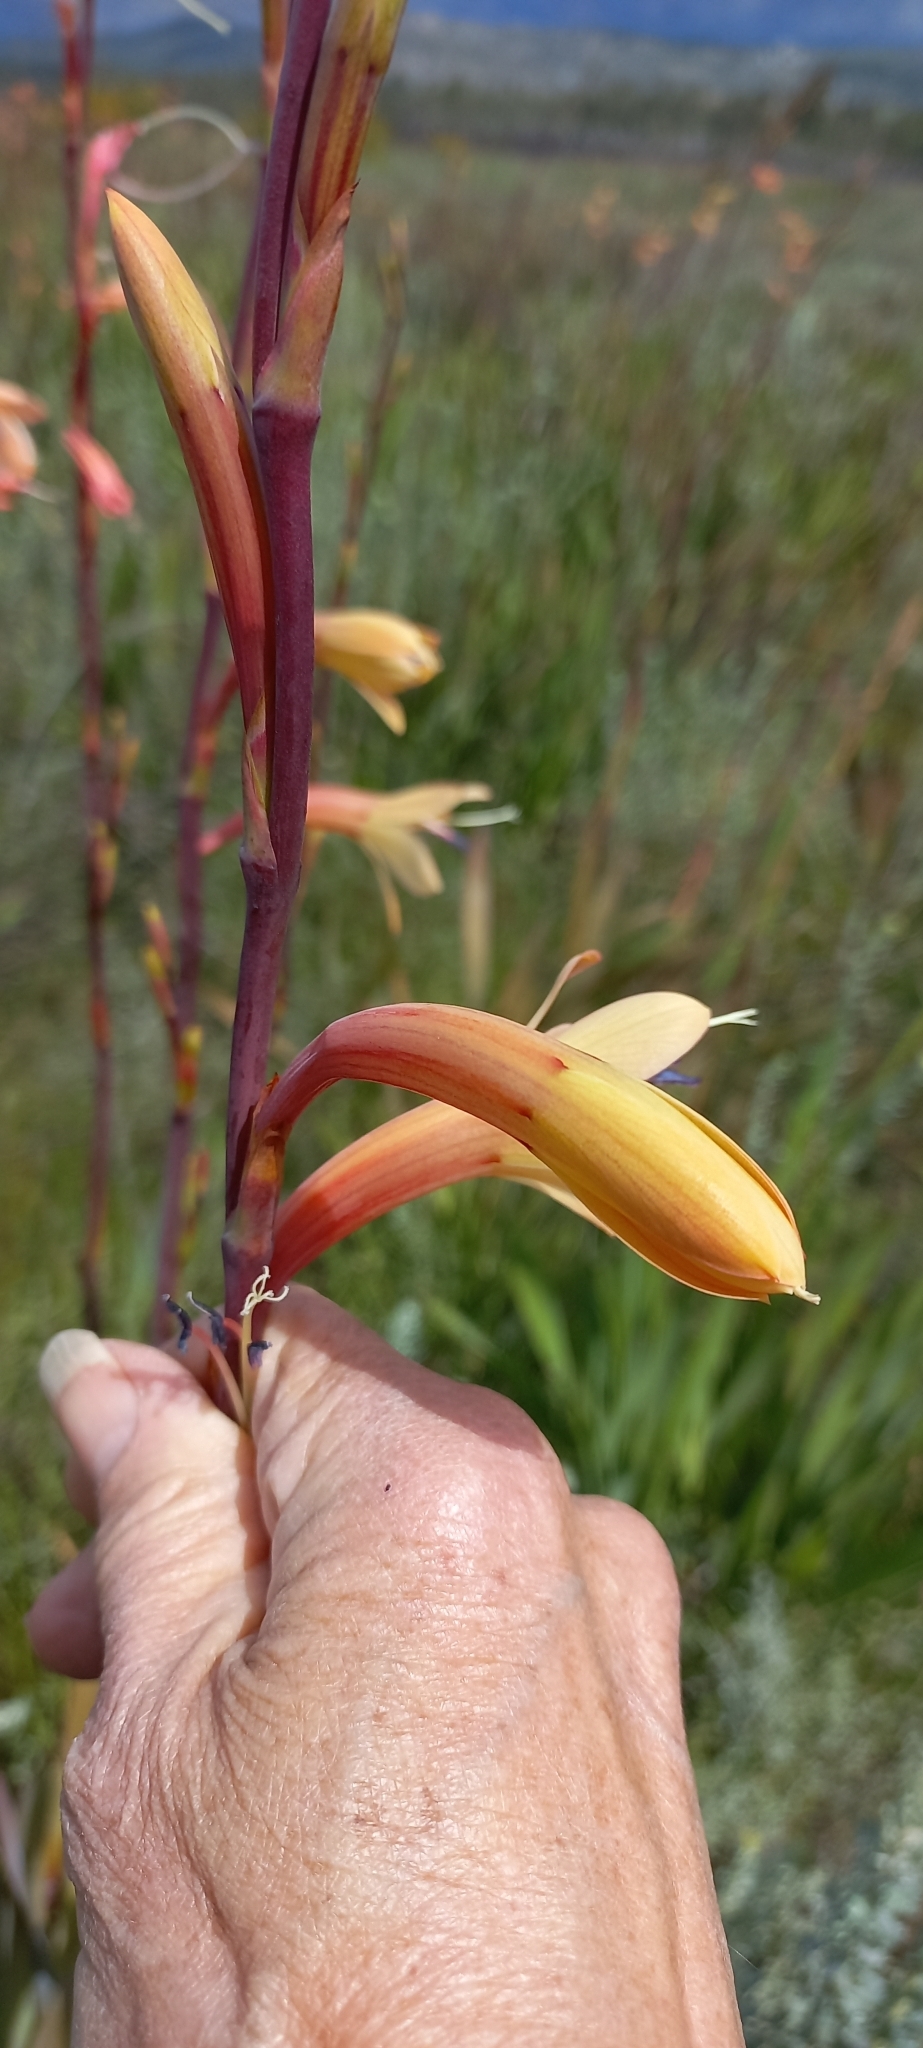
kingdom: Plantae
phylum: Tracheophyta
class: Liliopsida
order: Asparagales
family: Iridaceae
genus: Watsonia
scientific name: Watsonia meriana
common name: Bulbil bugle-lily
